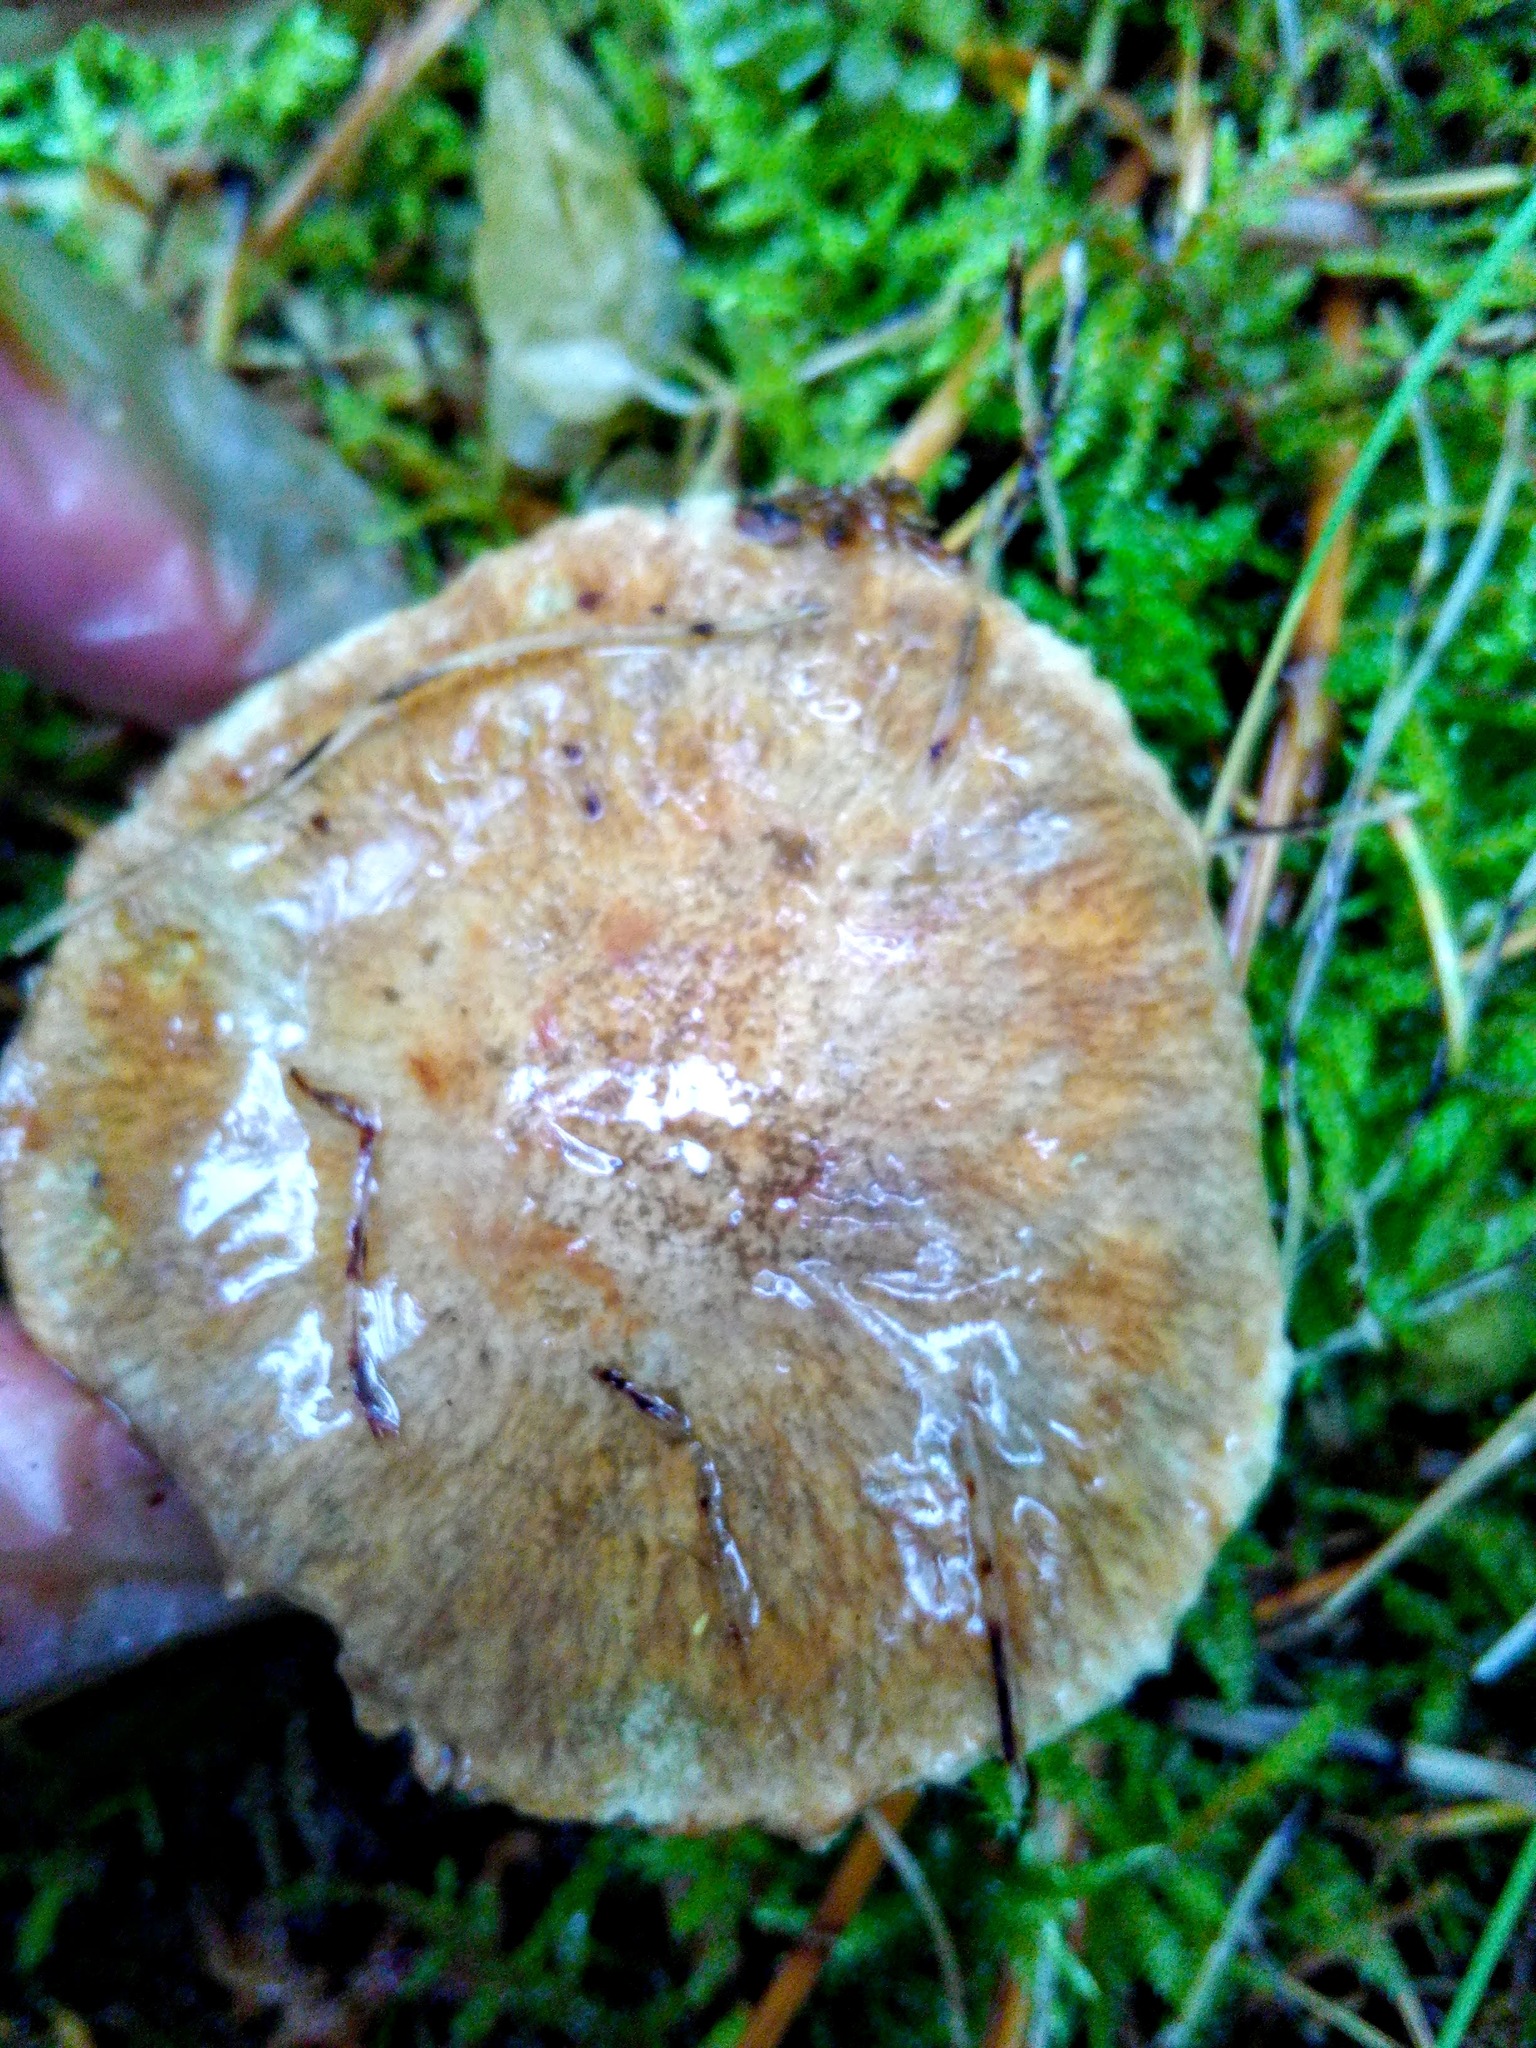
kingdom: Fungi
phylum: Basidiomycota
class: Agaricomycetes
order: Boletales
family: Suillaceae
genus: Suillus
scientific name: Suillus acidus
